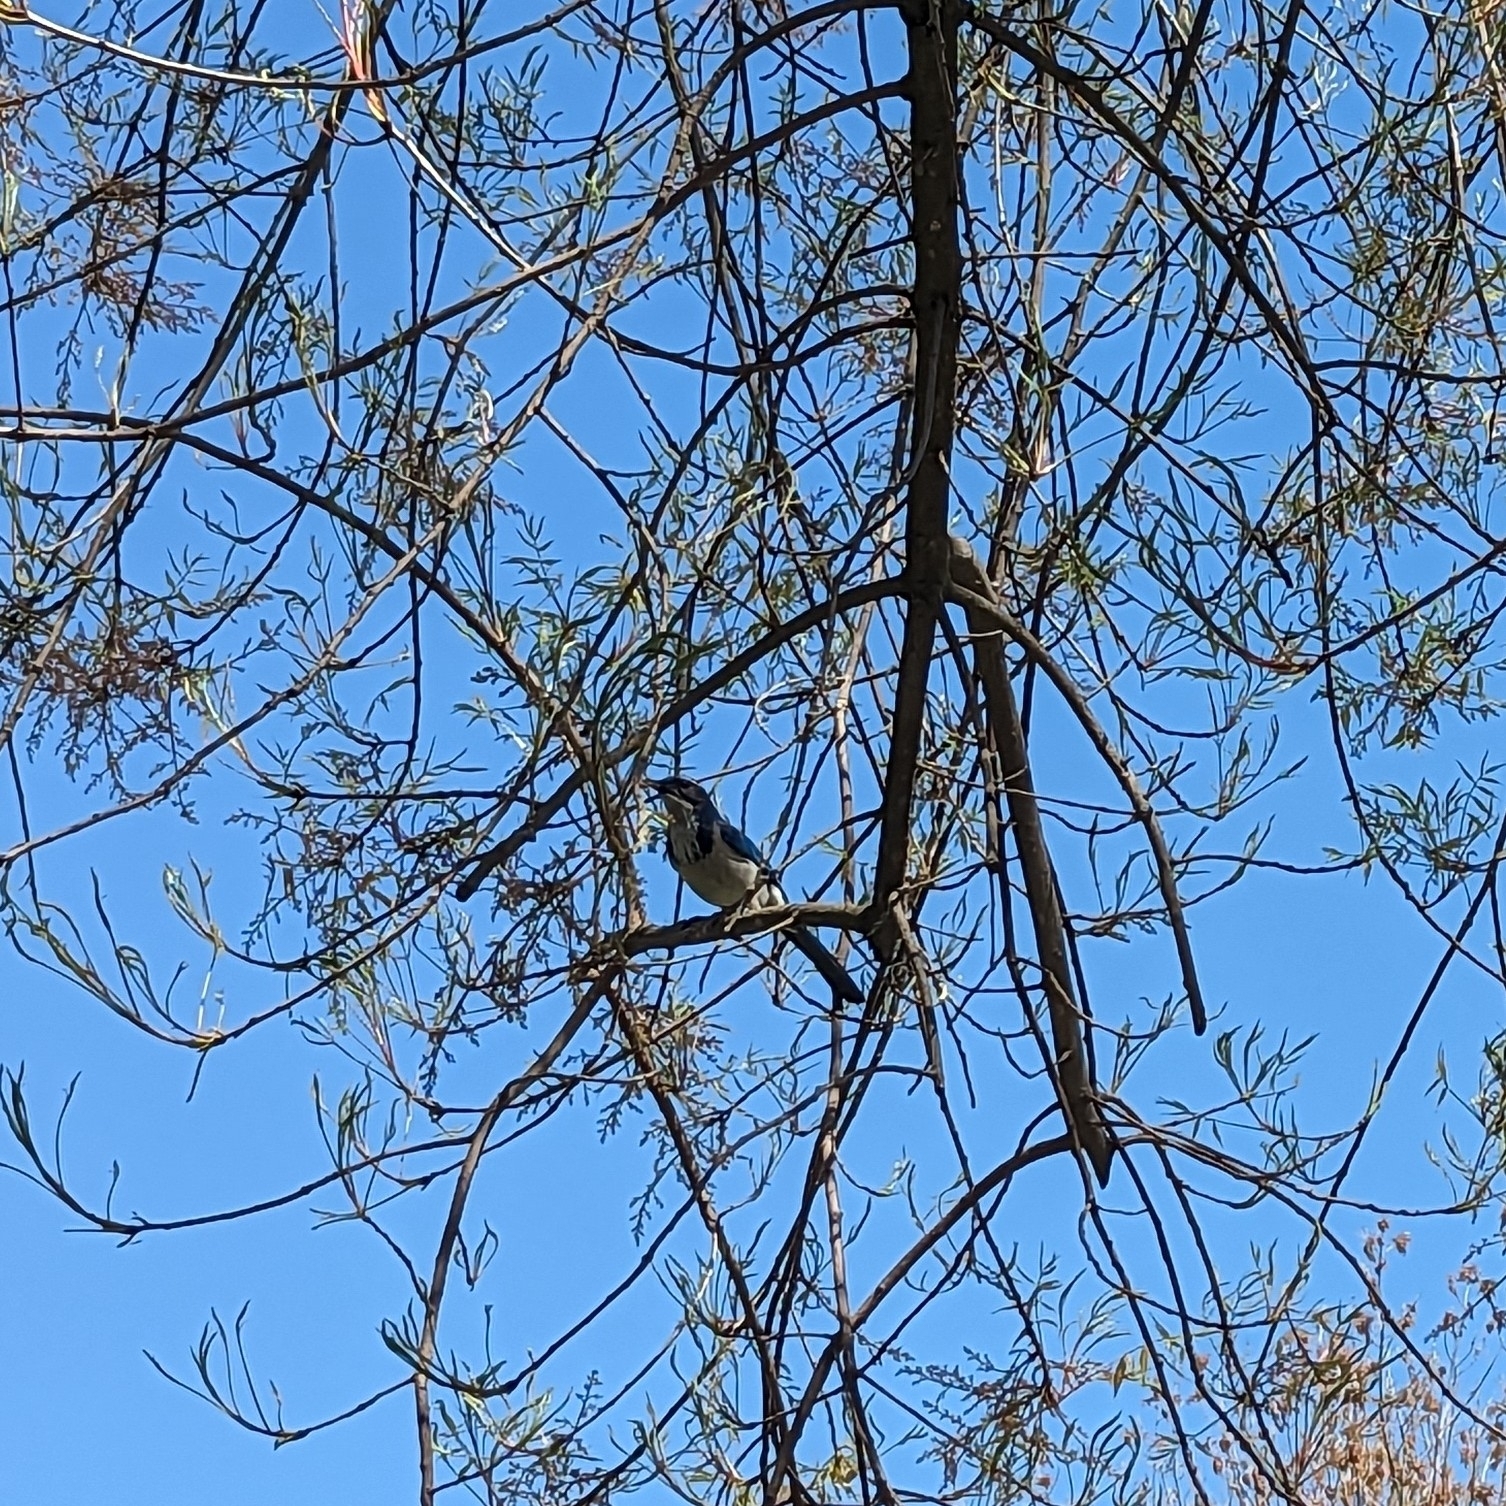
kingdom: Animalia
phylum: Chordata
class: Aves
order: Passeriformes
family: Corvidae
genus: Aphelocoma
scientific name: Aphelocoma californica
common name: California scrub-jay
